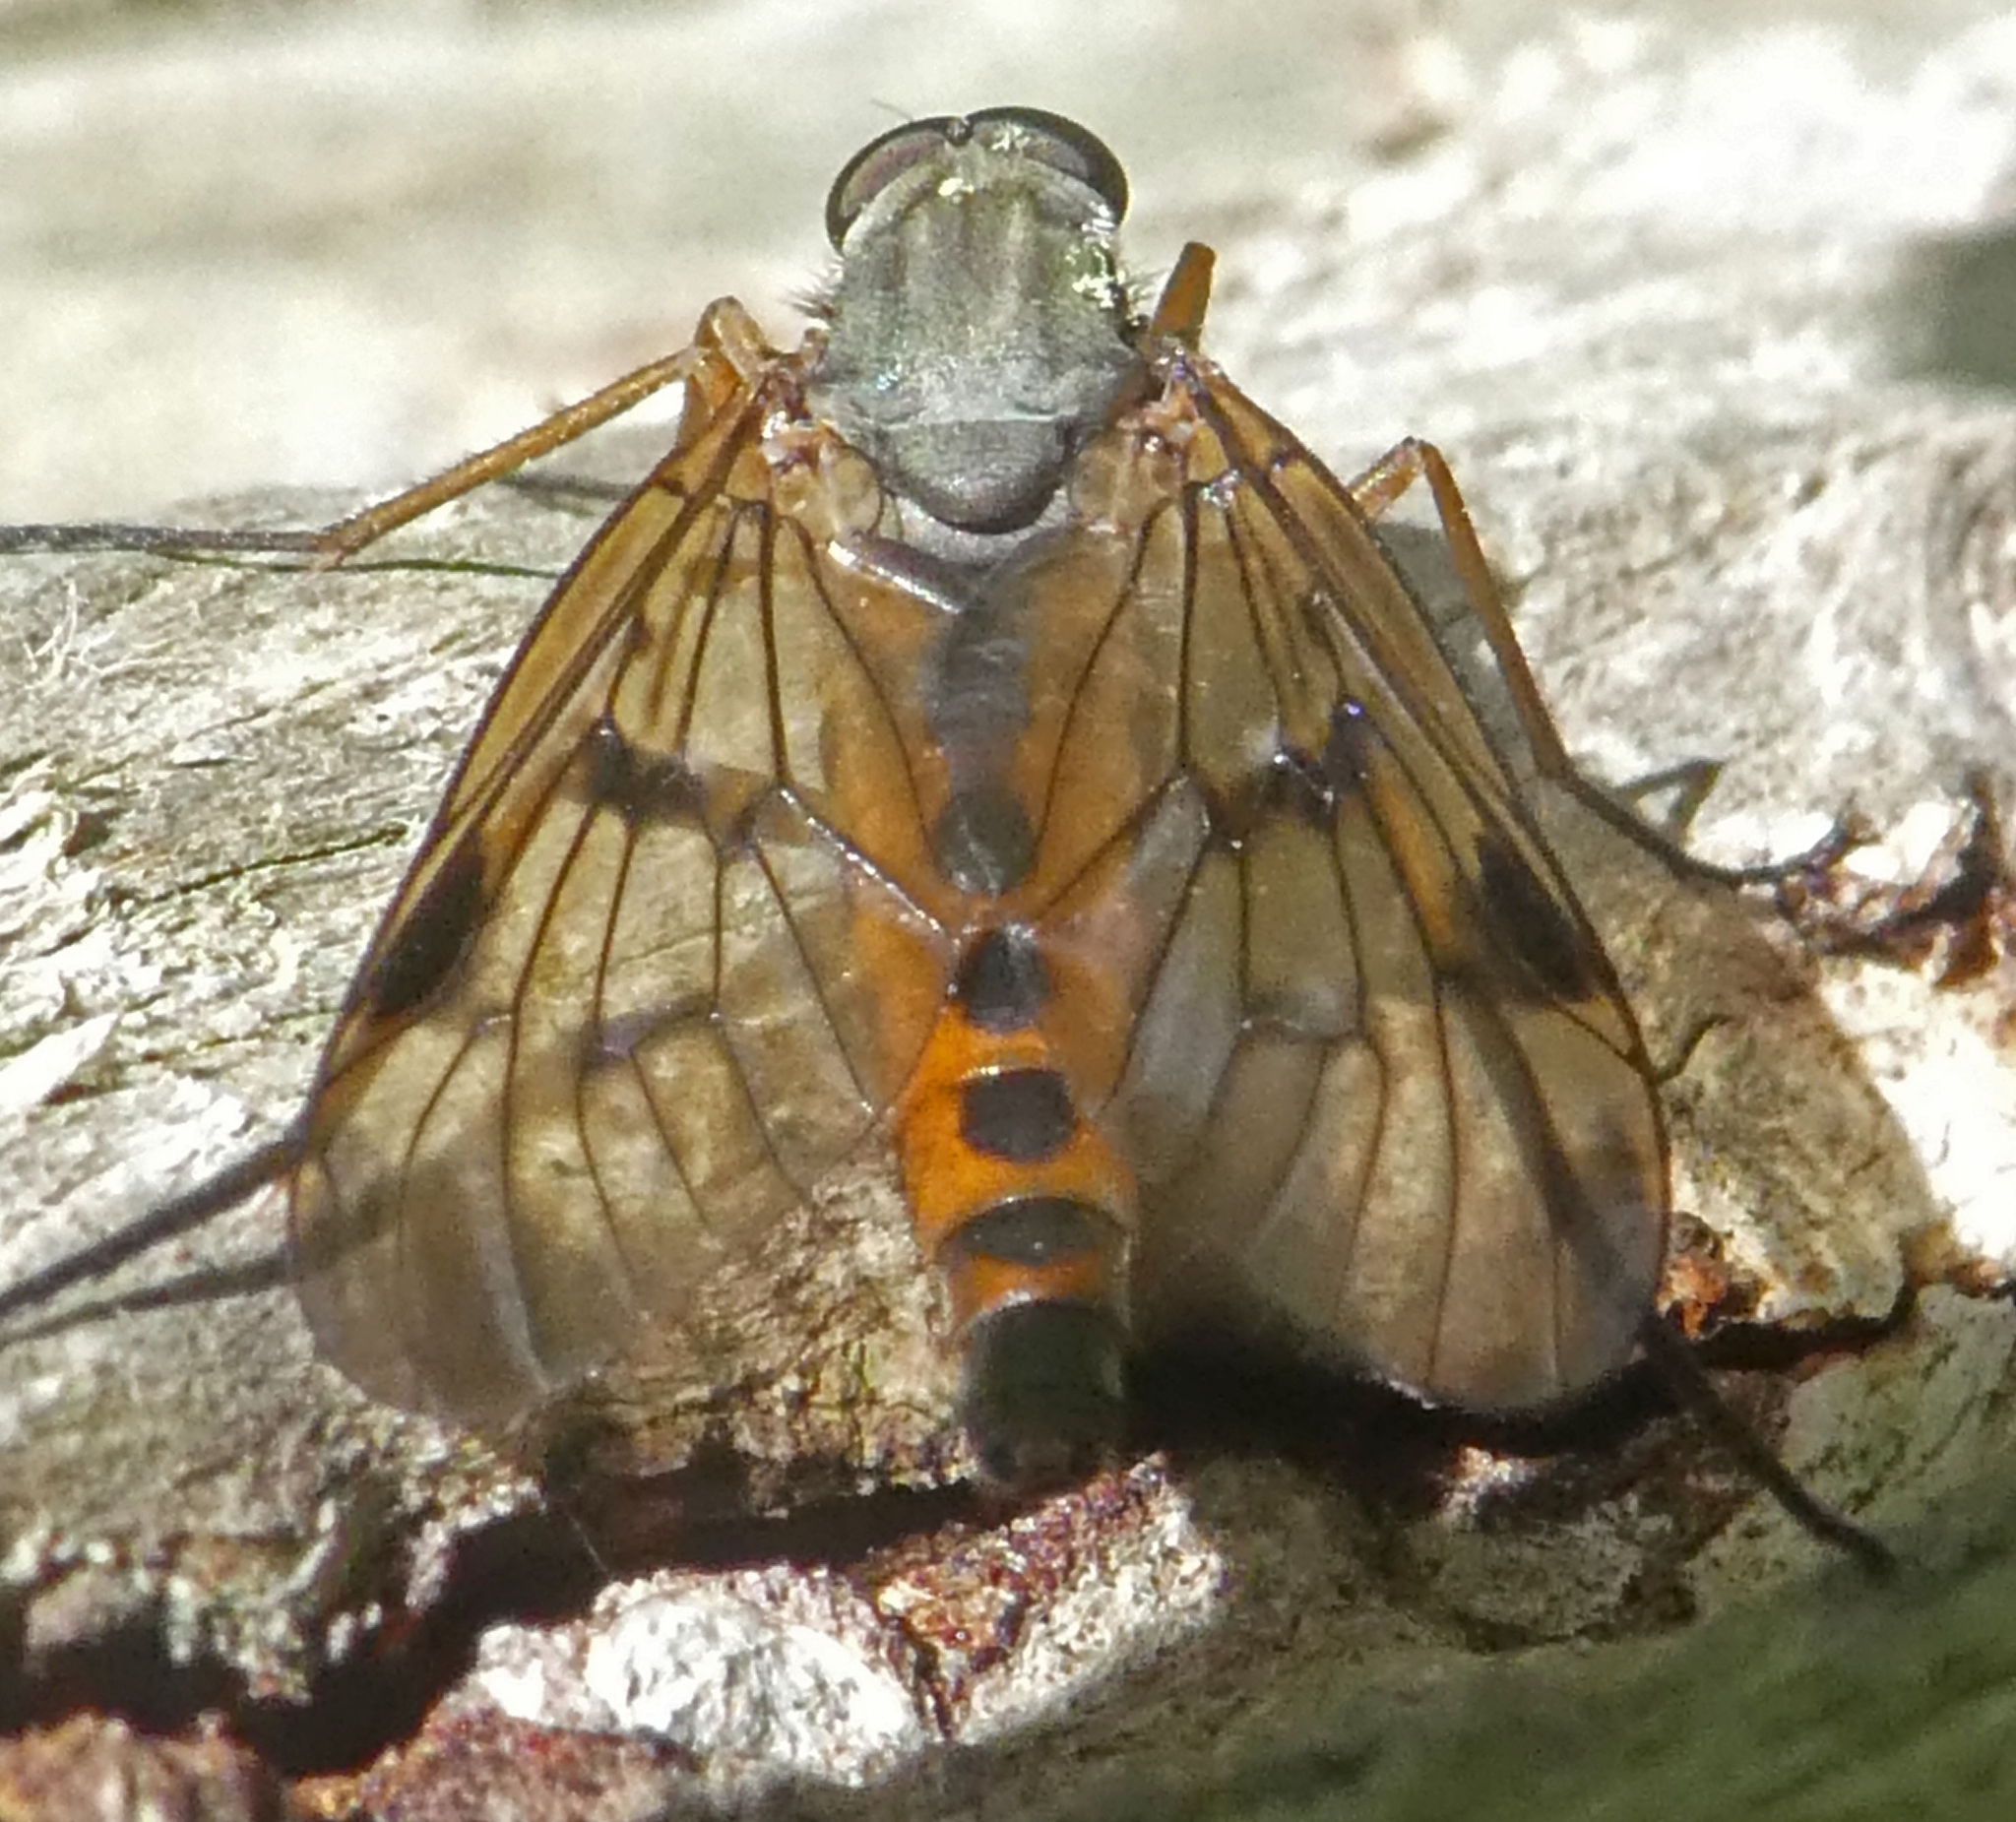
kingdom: Animalia
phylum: Arthropoda
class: Insecta
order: Diptera
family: Rhagionidae
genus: Rhagio
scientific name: Rhagio scolopacea
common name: Downlooker snipefly
